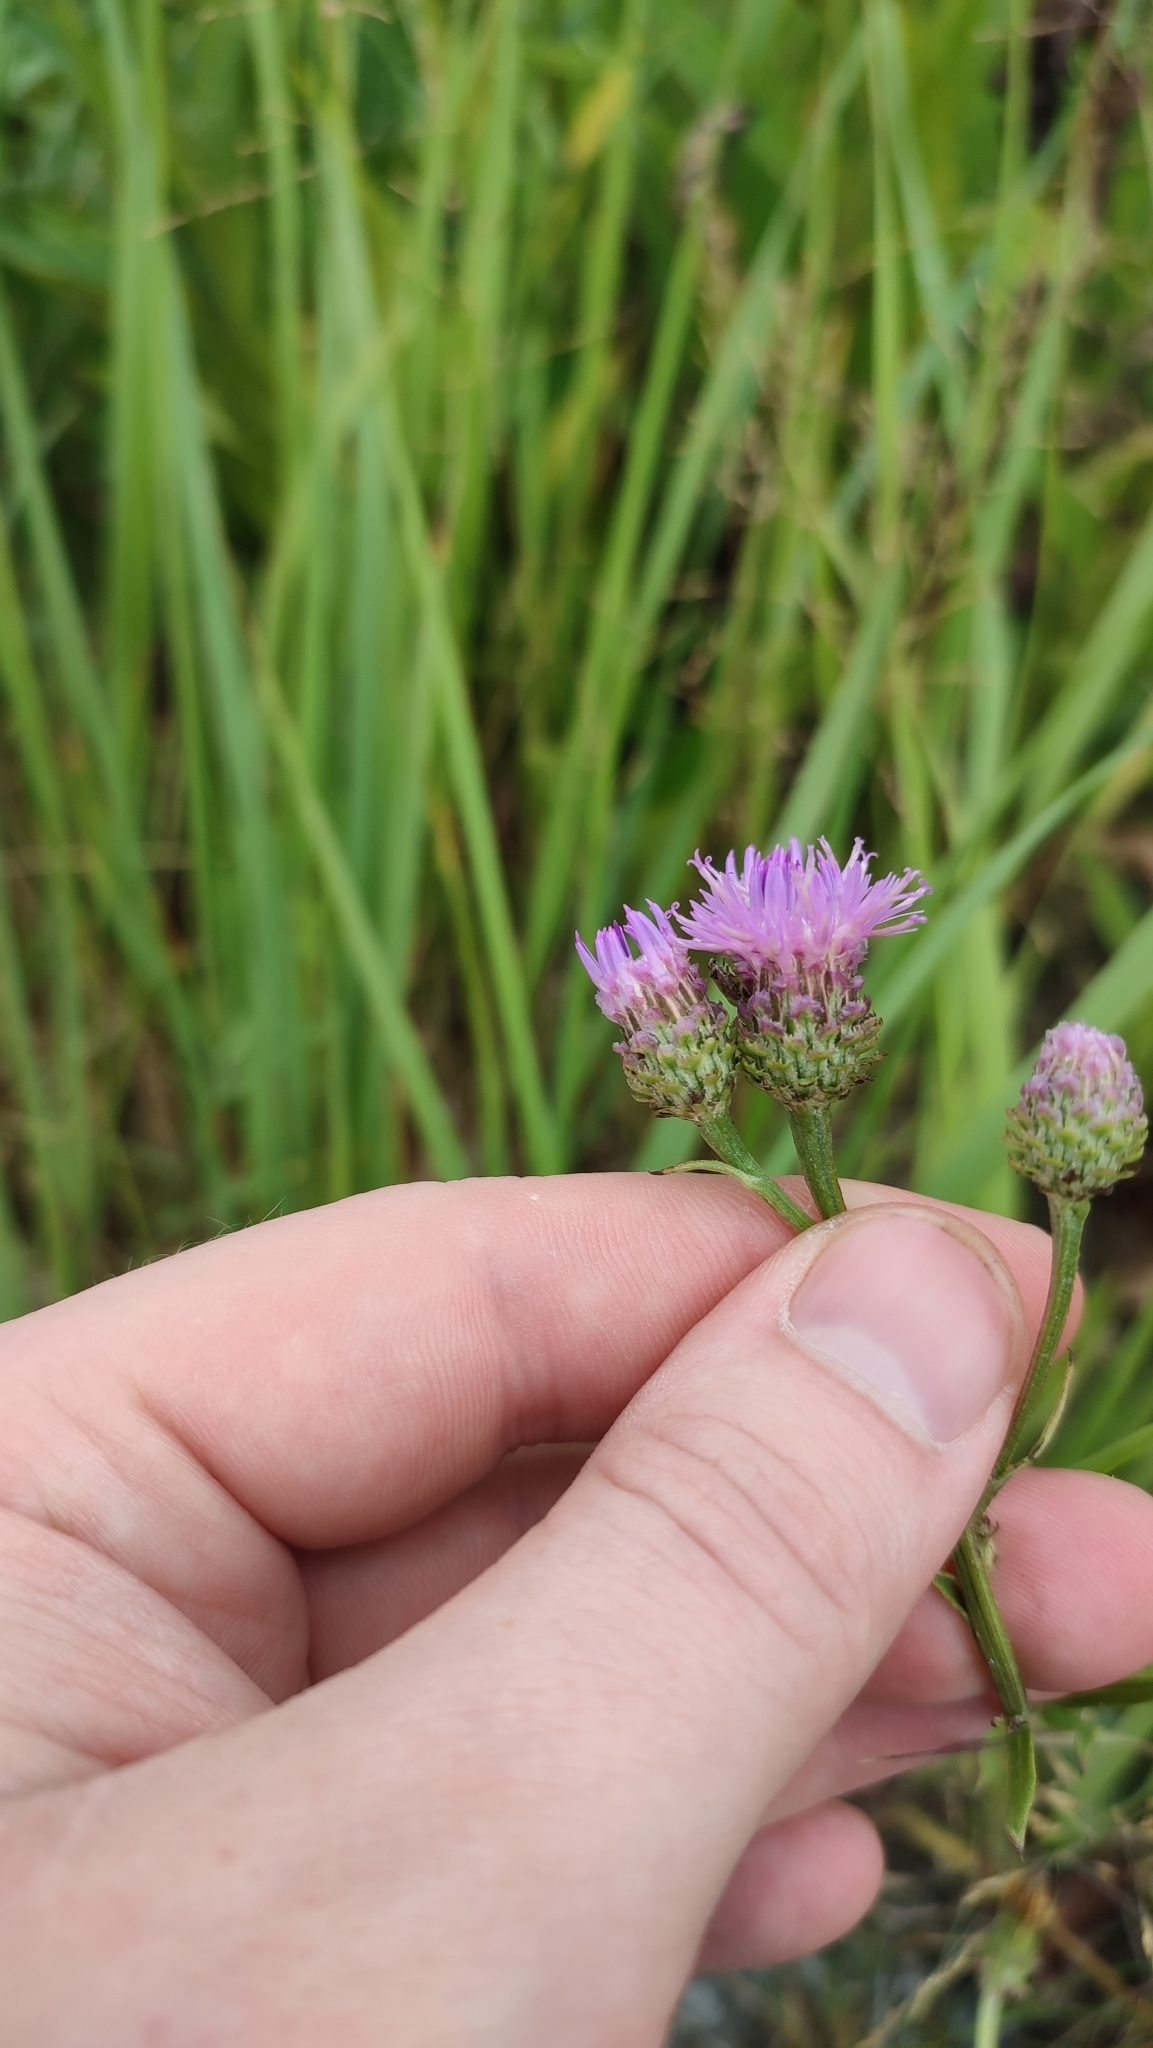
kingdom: Plantae
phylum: Tracheophyta
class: Magnoliopsida
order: Asterales
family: Asteraceae
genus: Saussurea
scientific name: Saussurea amara
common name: Alberta sawwort
